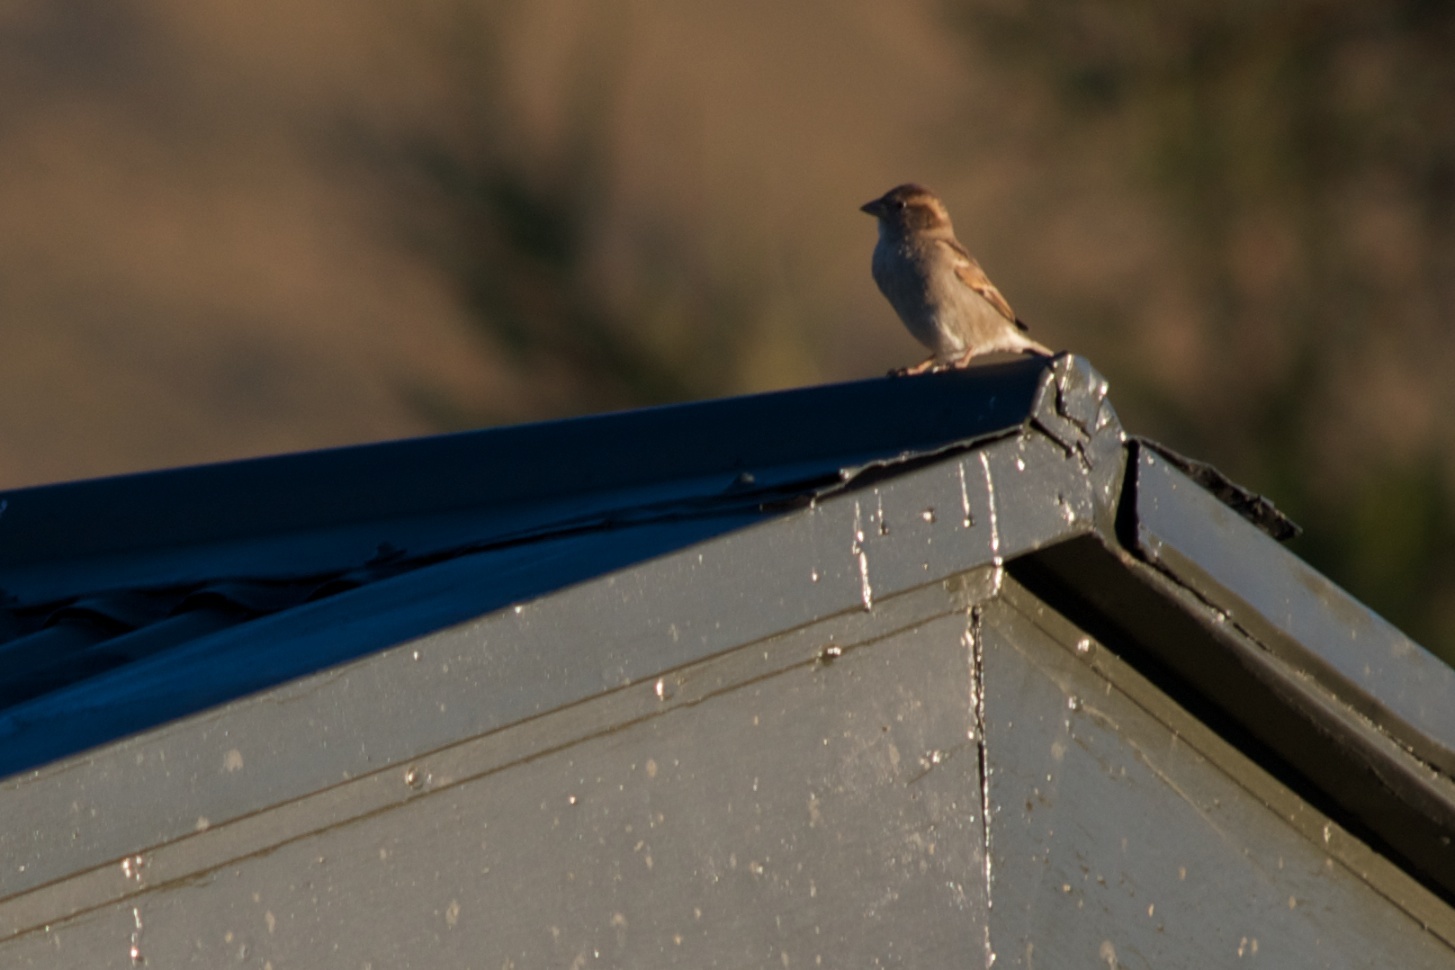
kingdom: Animalia
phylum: Chordata
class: Aves
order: Passeriformes
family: Passeridae
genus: Passer
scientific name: Passer domesticus
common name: House sparrow
